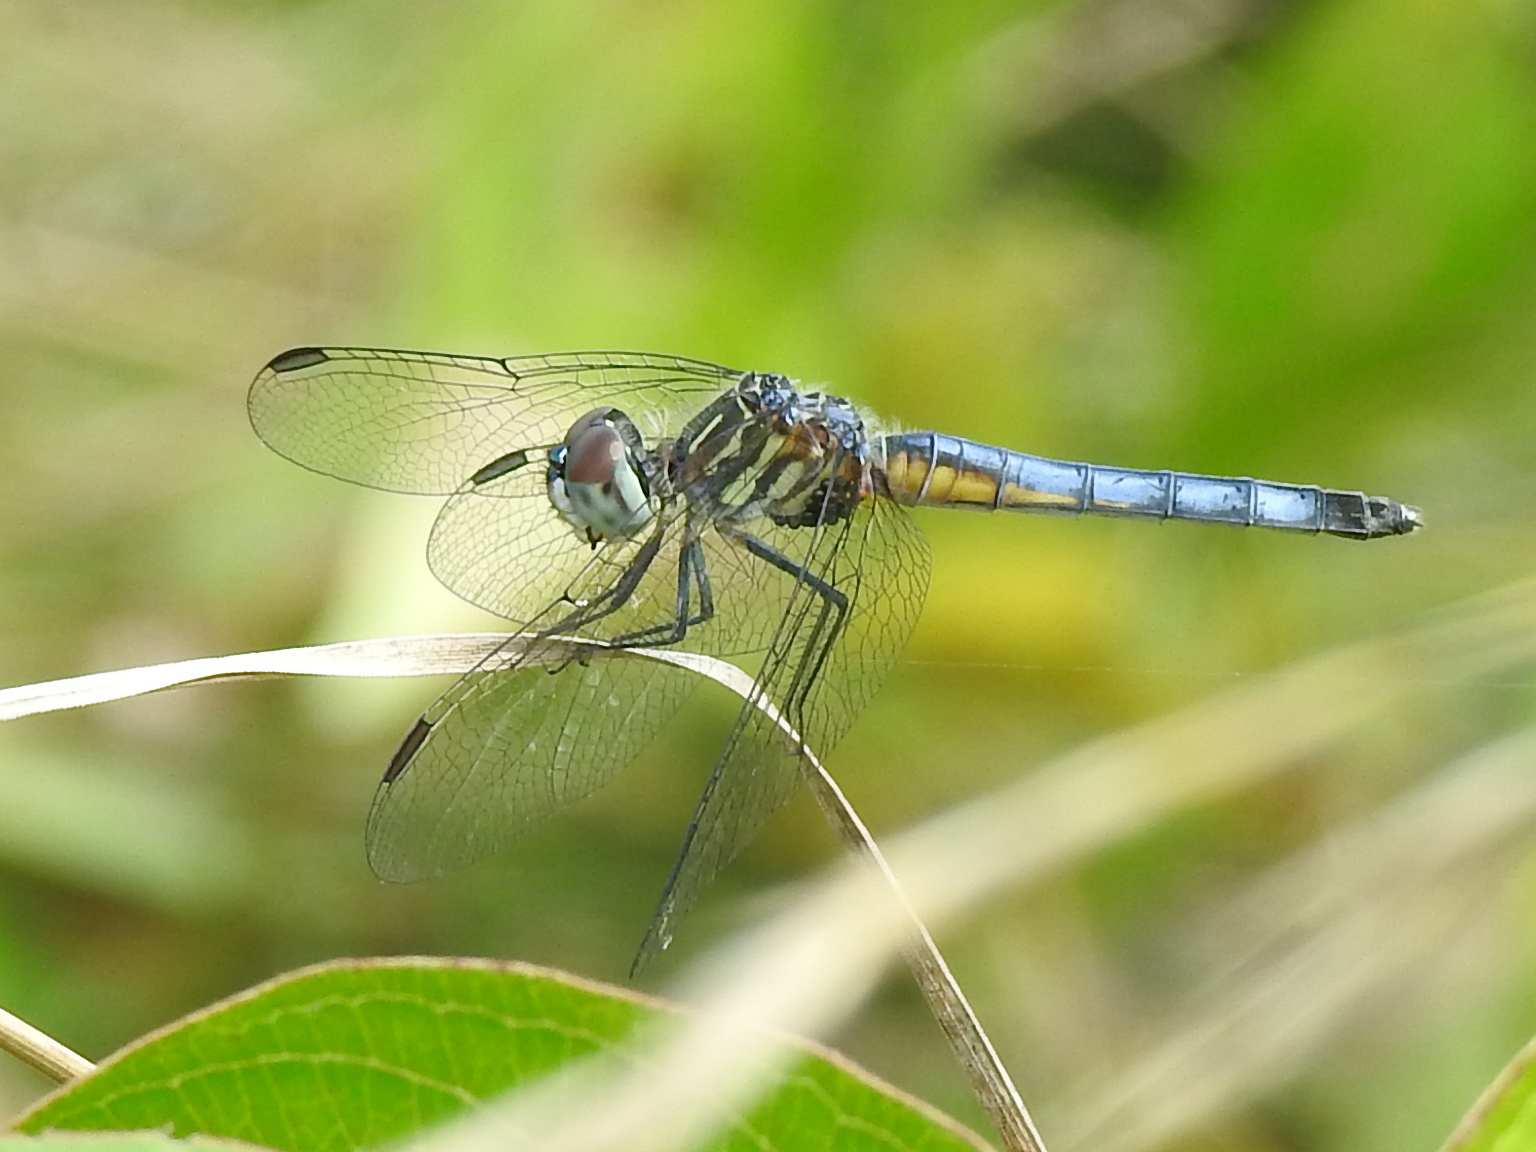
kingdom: Animalia
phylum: Arthropoda
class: Insecta
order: Odonata
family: Libellulidae
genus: Pachydiplax
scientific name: Pachydiplax longipennis
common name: Blue dasher
